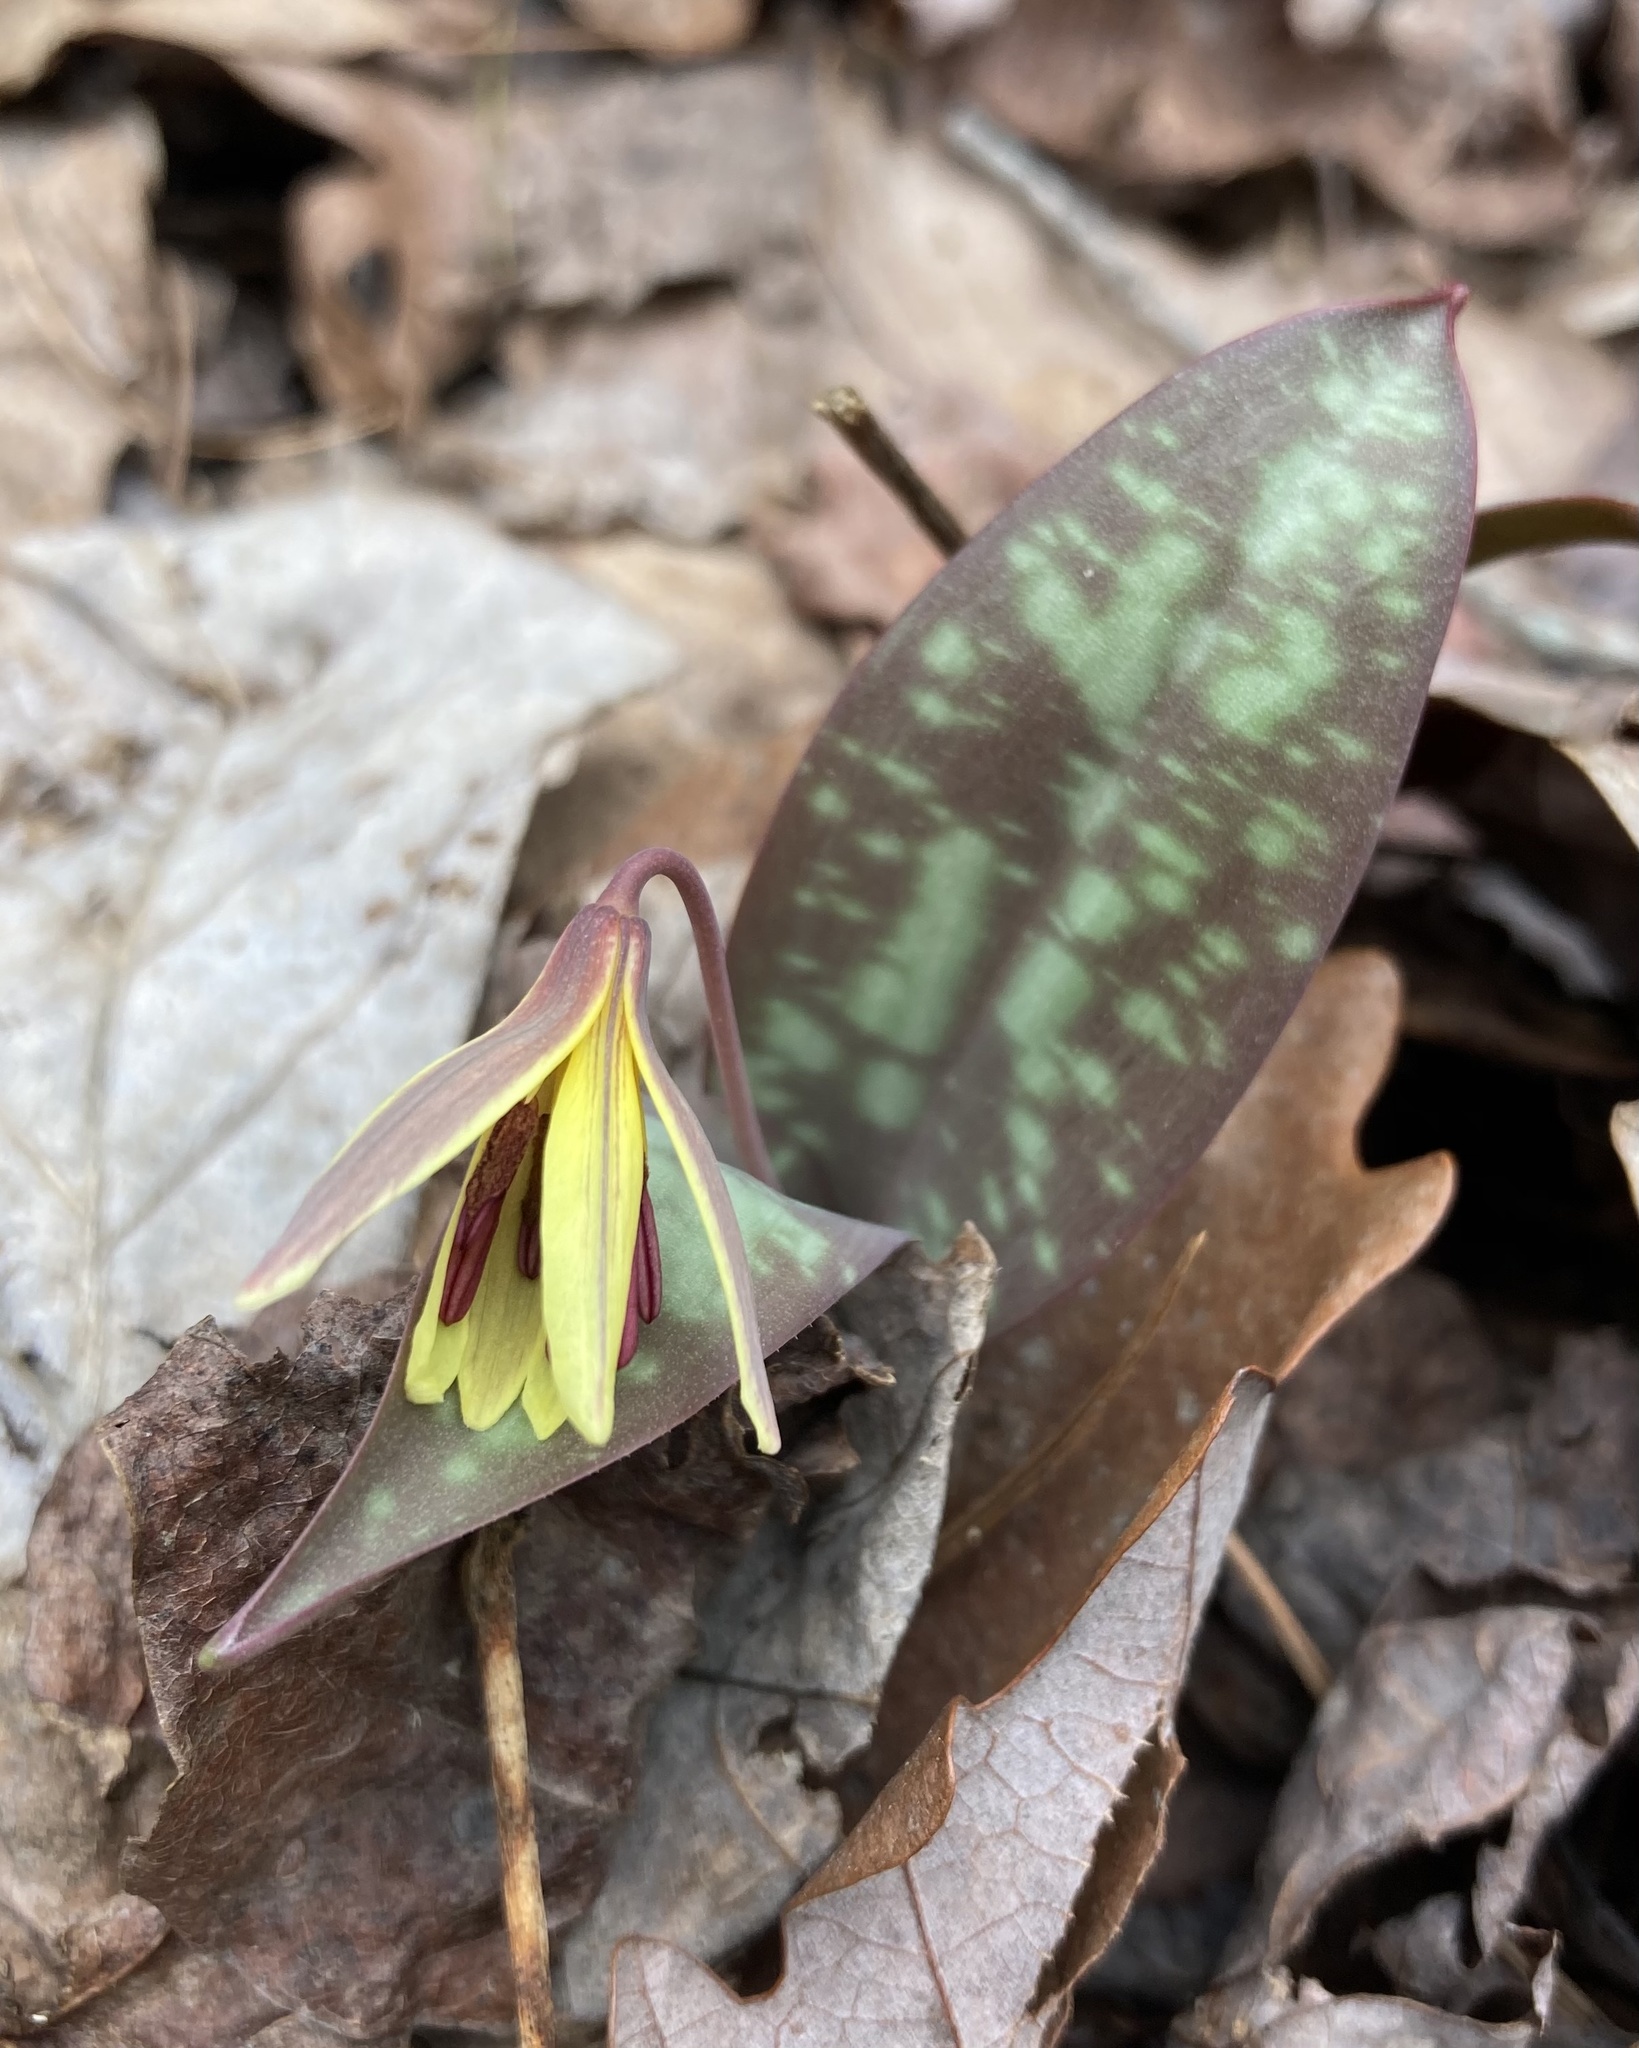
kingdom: Plantae
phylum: Tracheophyta
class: Liliopsida
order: Liliales
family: Liliaceae
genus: Erythronium
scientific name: Erythronium americanum
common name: Yellow adder's-tongue
